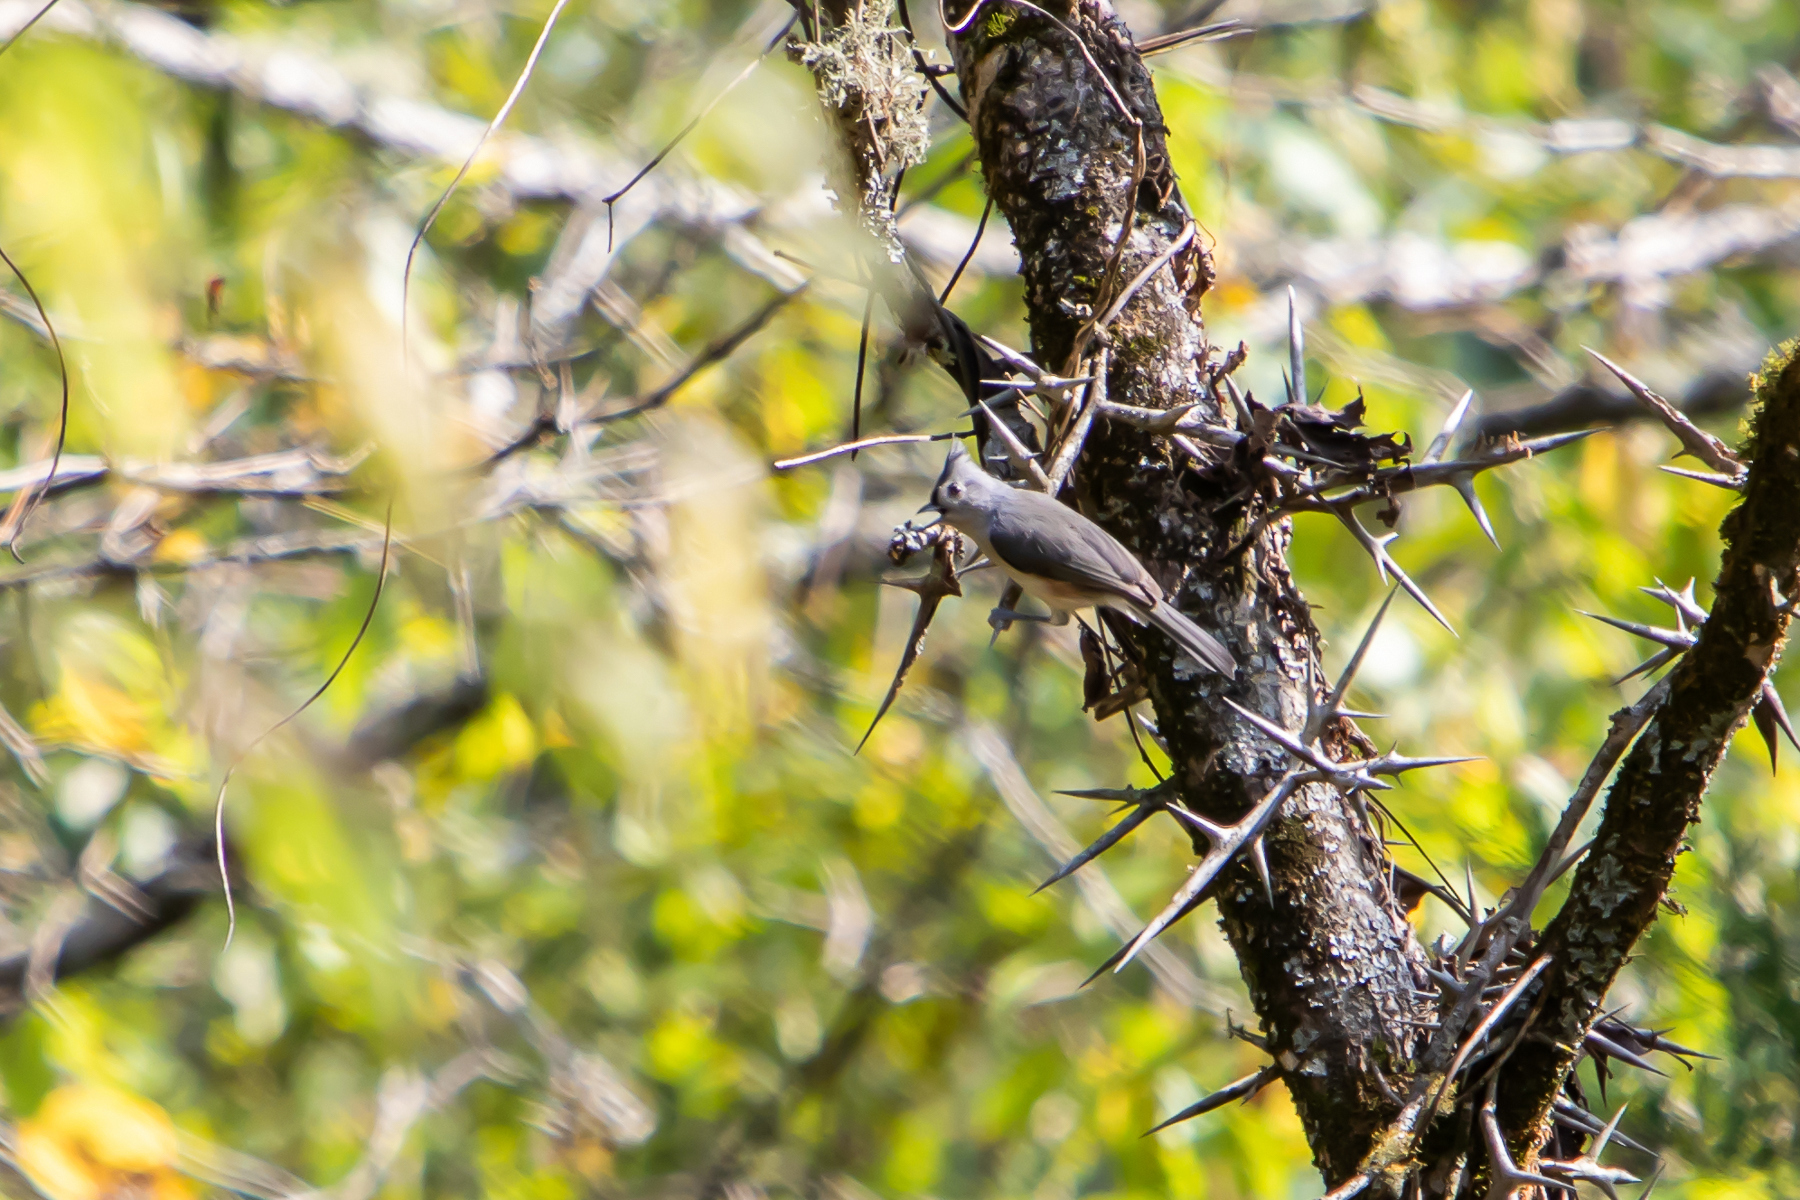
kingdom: Animalia
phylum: Chordata
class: Aves
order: Passeriformes
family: Paridae
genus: Baeolophus
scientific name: Baeolophus bicolor
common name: Tufted titmouse
